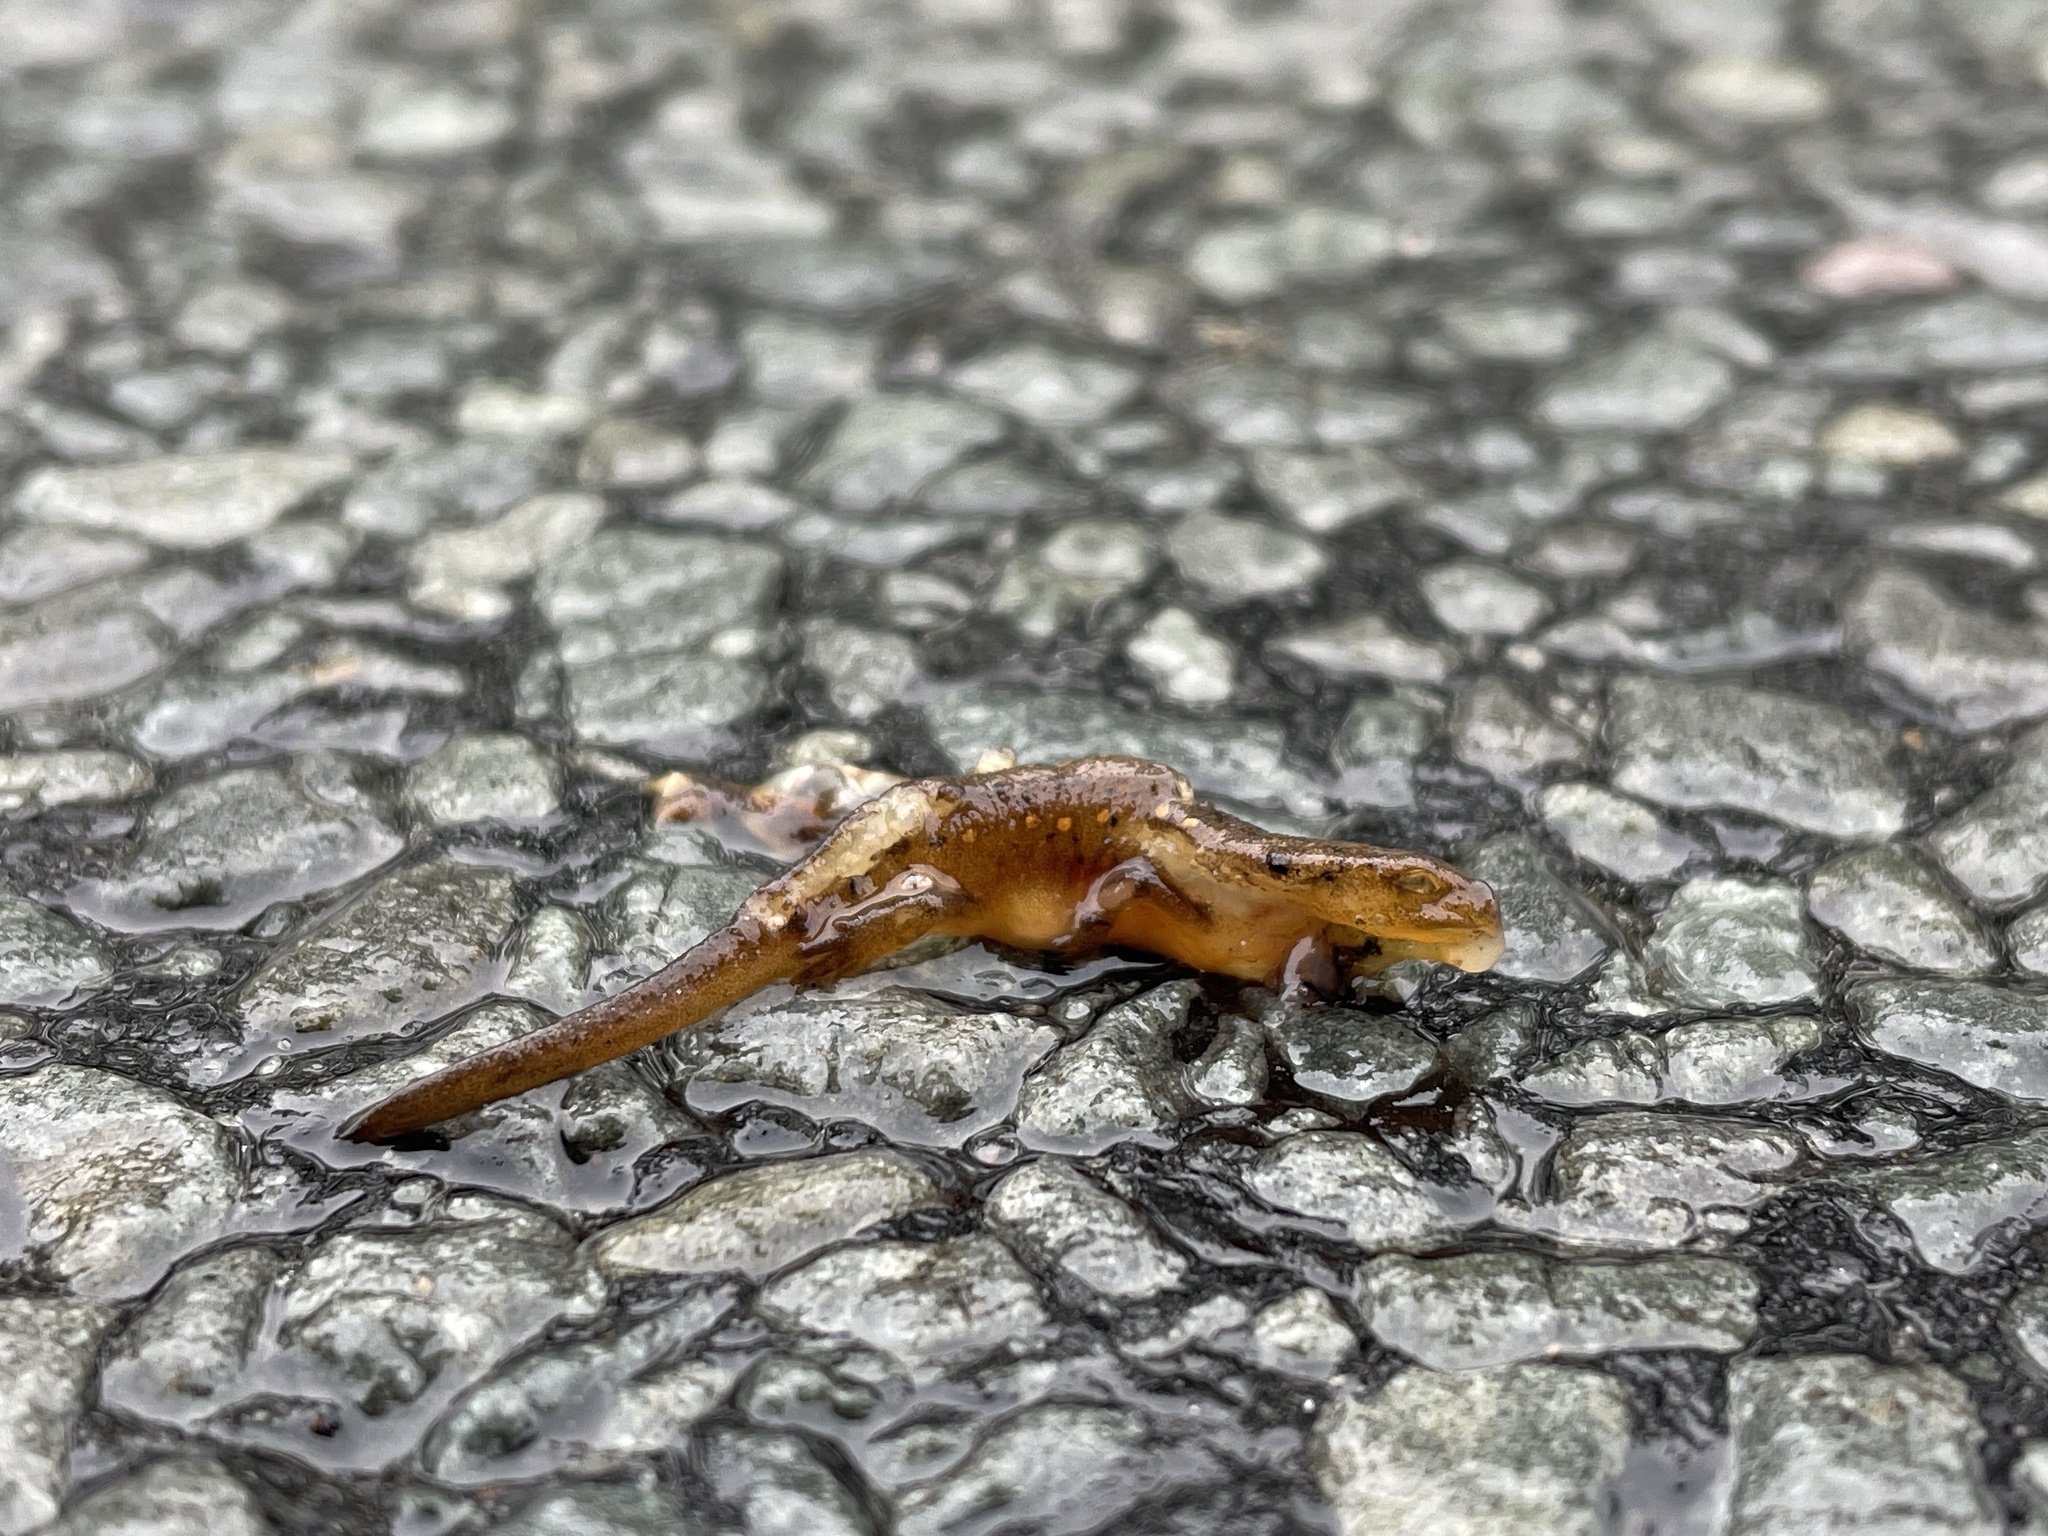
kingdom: Animalia
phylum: Chordata
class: Amphibia
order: Caudata
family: Salamandridae
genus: Notophthalmus
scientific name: Notophthalmus viridescens
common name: Eastern newt
